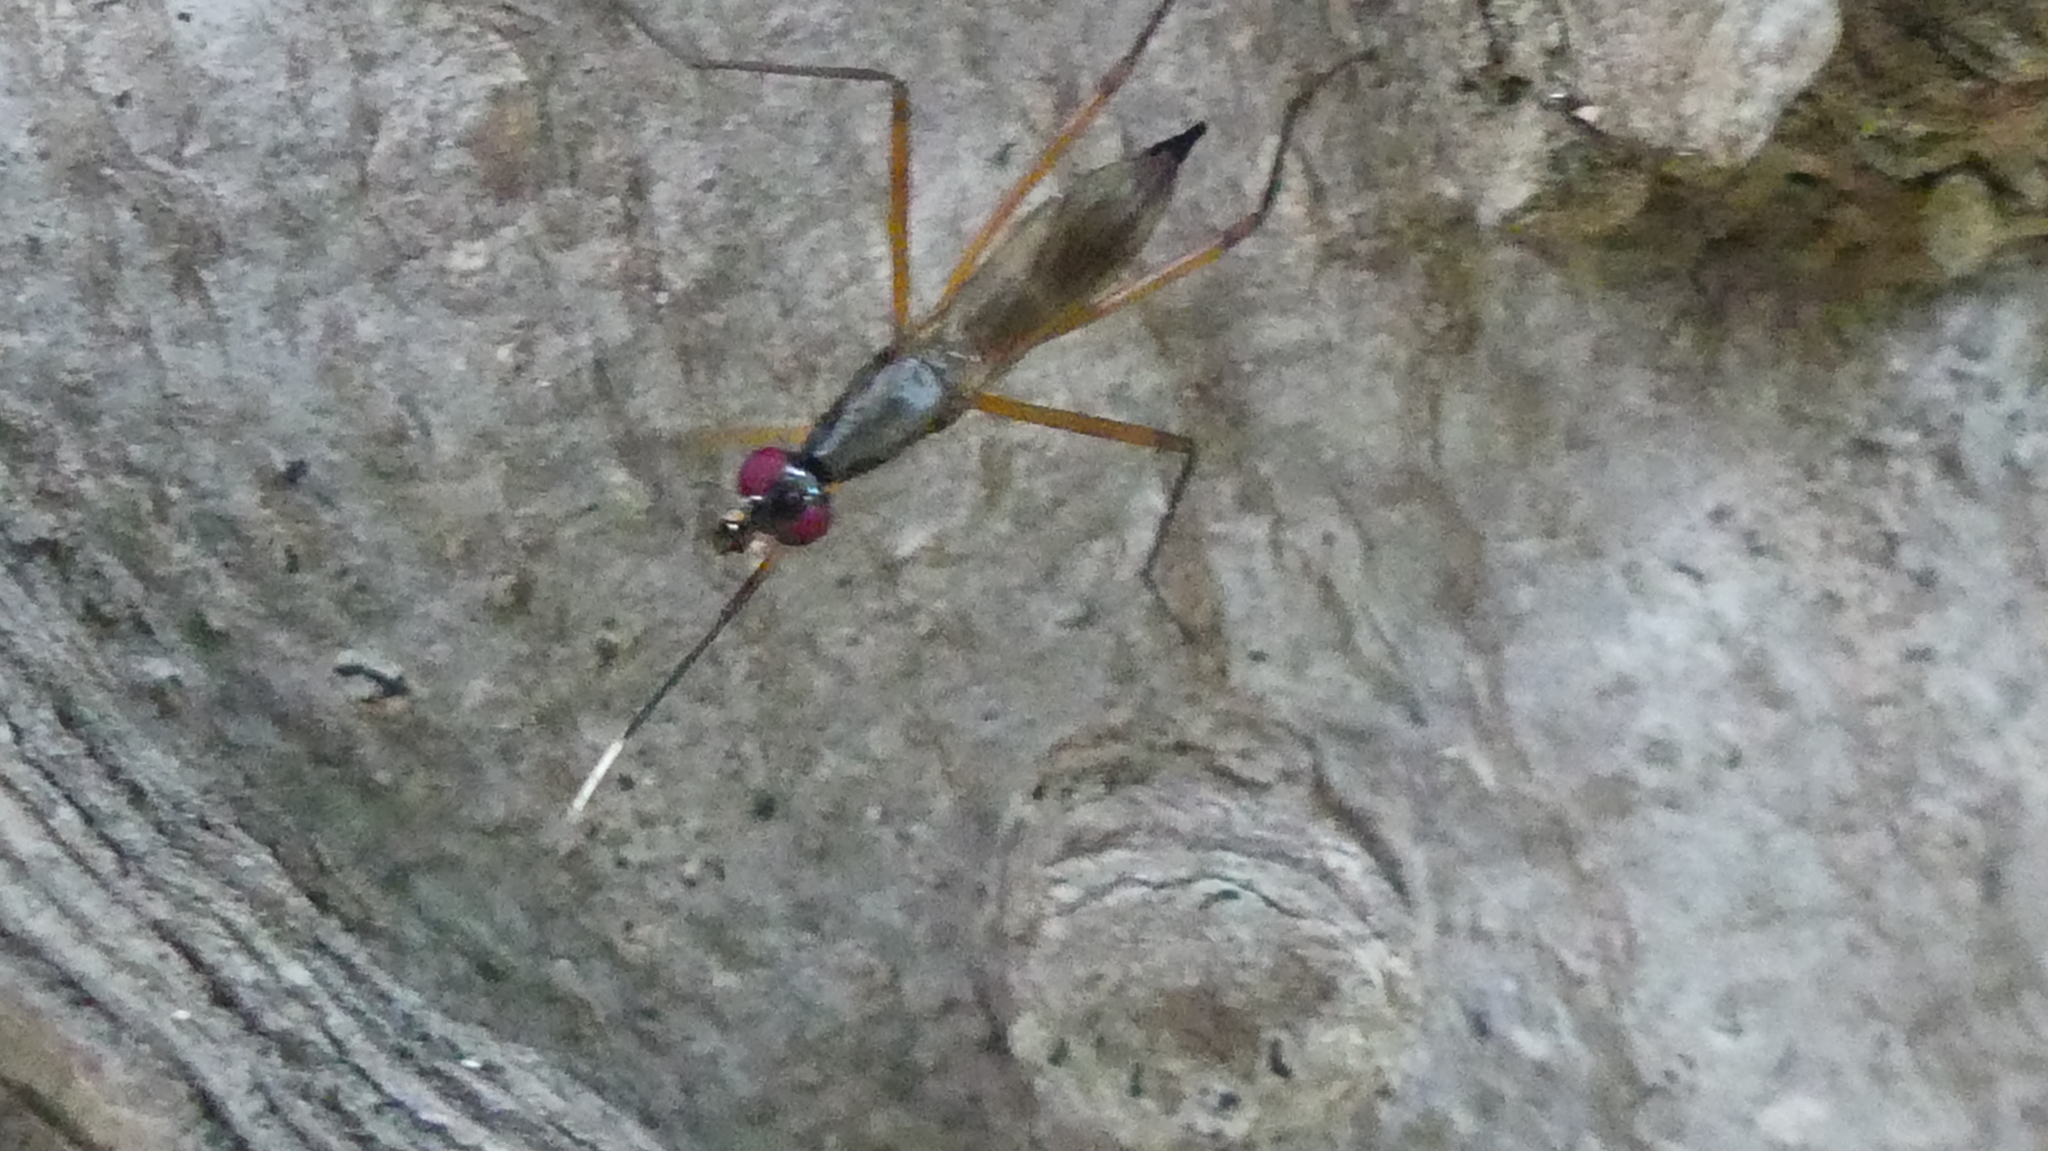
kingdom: Animalia
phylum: Arthropoda
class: Insecta
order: Diptera
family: Micropezidae
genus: Rainieria
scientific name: Rainieria antennaepes
